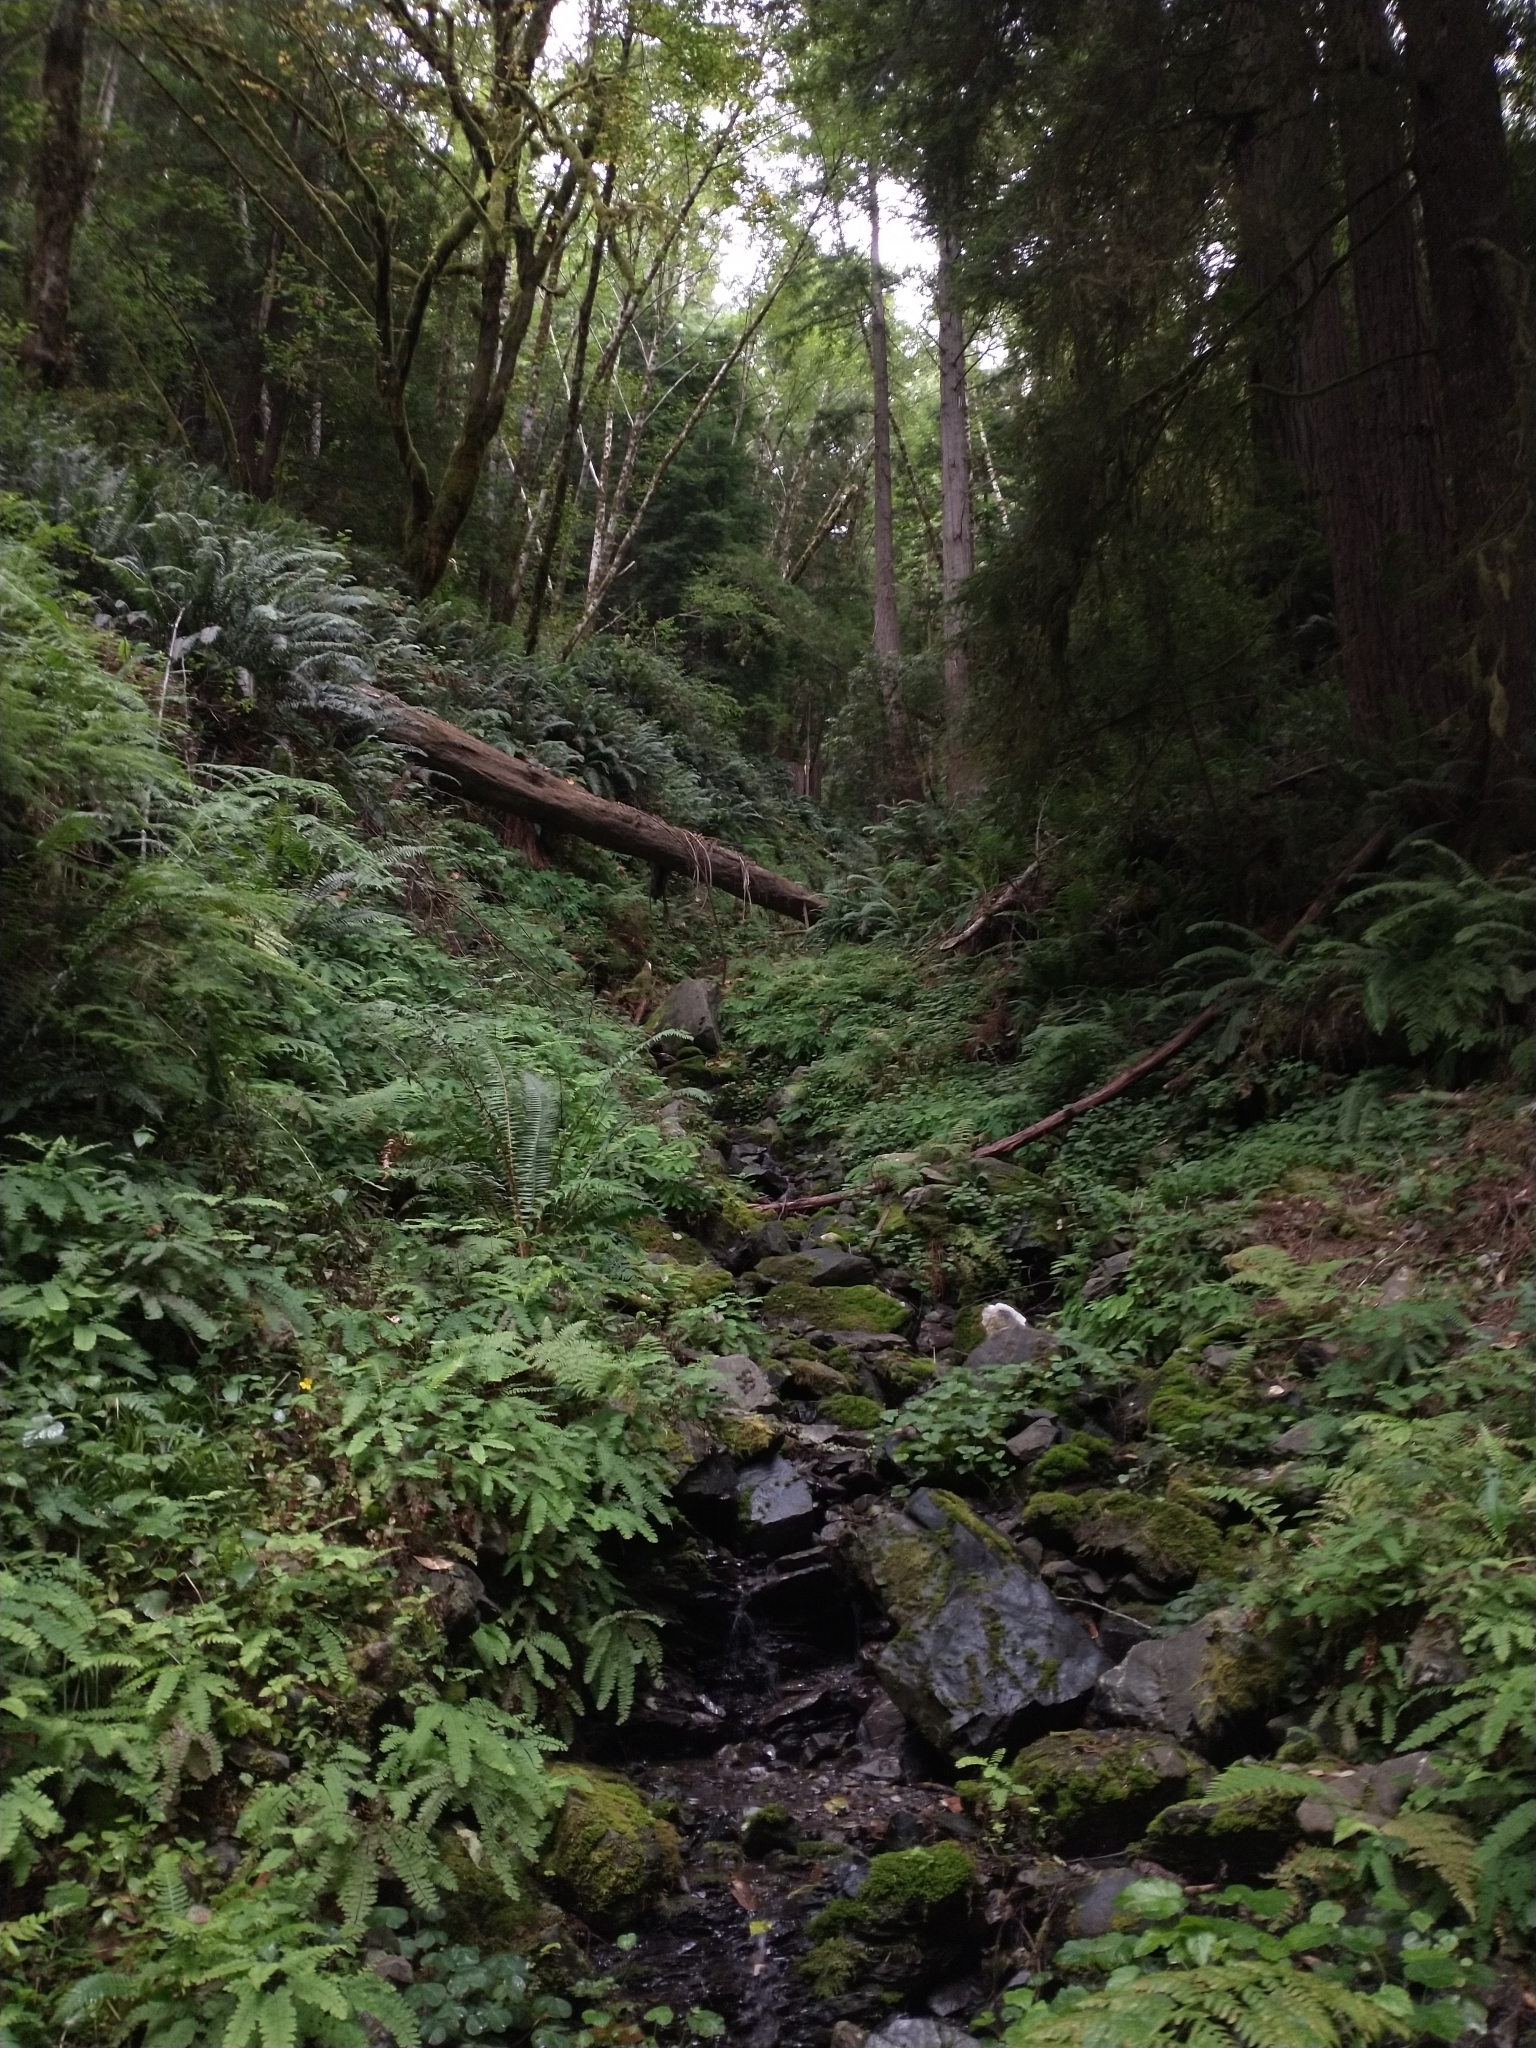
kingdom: Plantae
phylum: Tracheophyta
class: Polypodiopsida
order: Polypodiales
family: Dryopteridaceae
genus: Polystichum
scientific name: Polystichum munitum
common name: Western sword-fern
